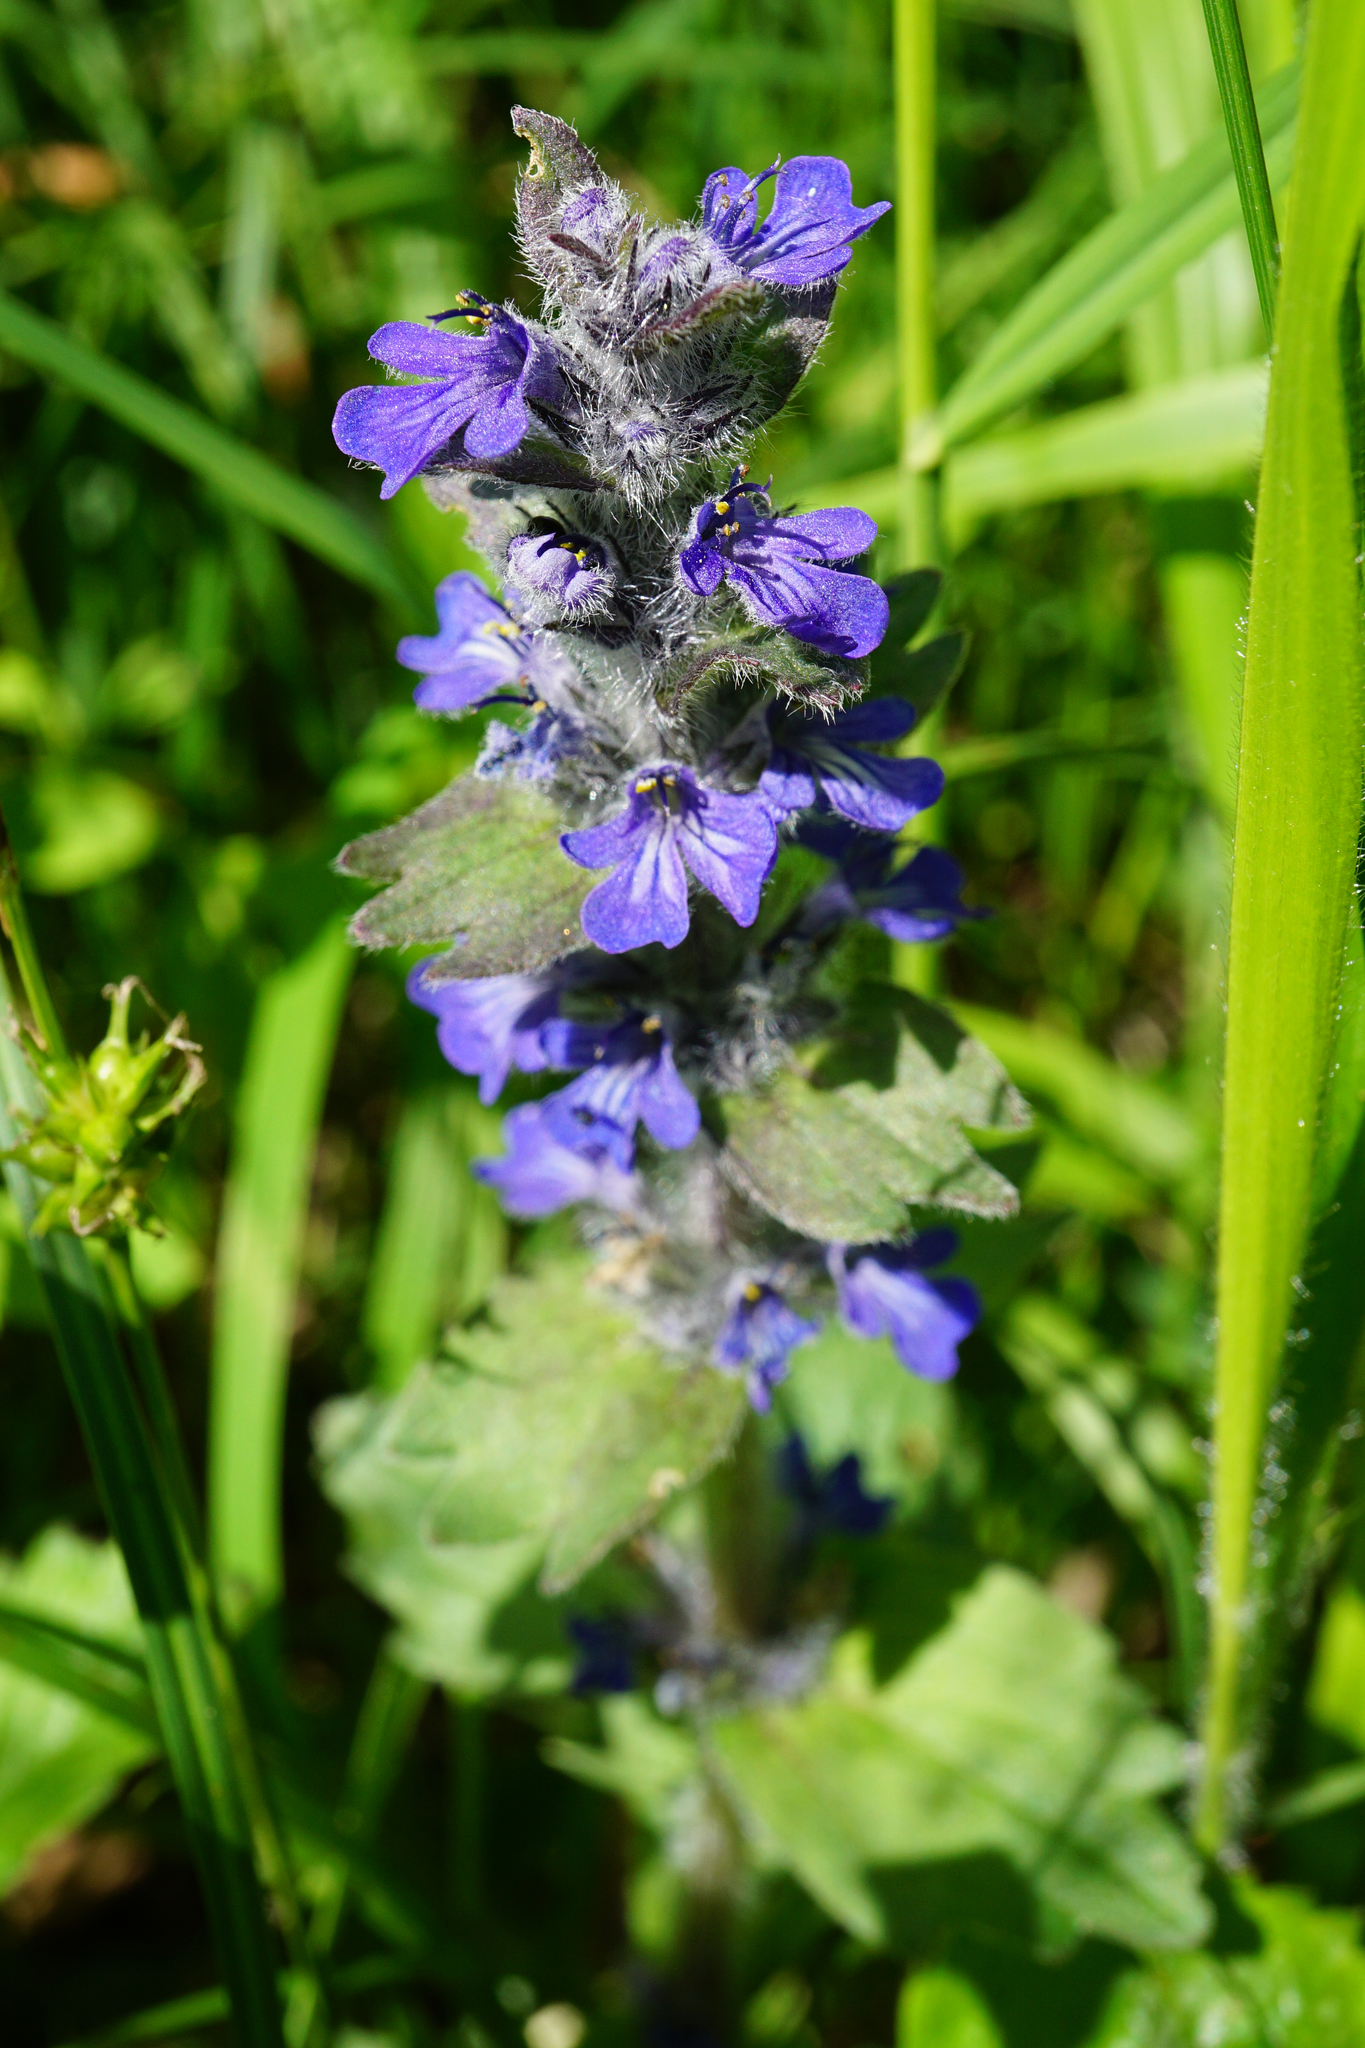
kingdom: Plantae
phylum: Tracheophyta
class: Magnoliopsida
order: Lamiales
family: Lamiaceae
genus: Ajuga
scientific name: Ajuga genevensis
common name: Blue bugle
